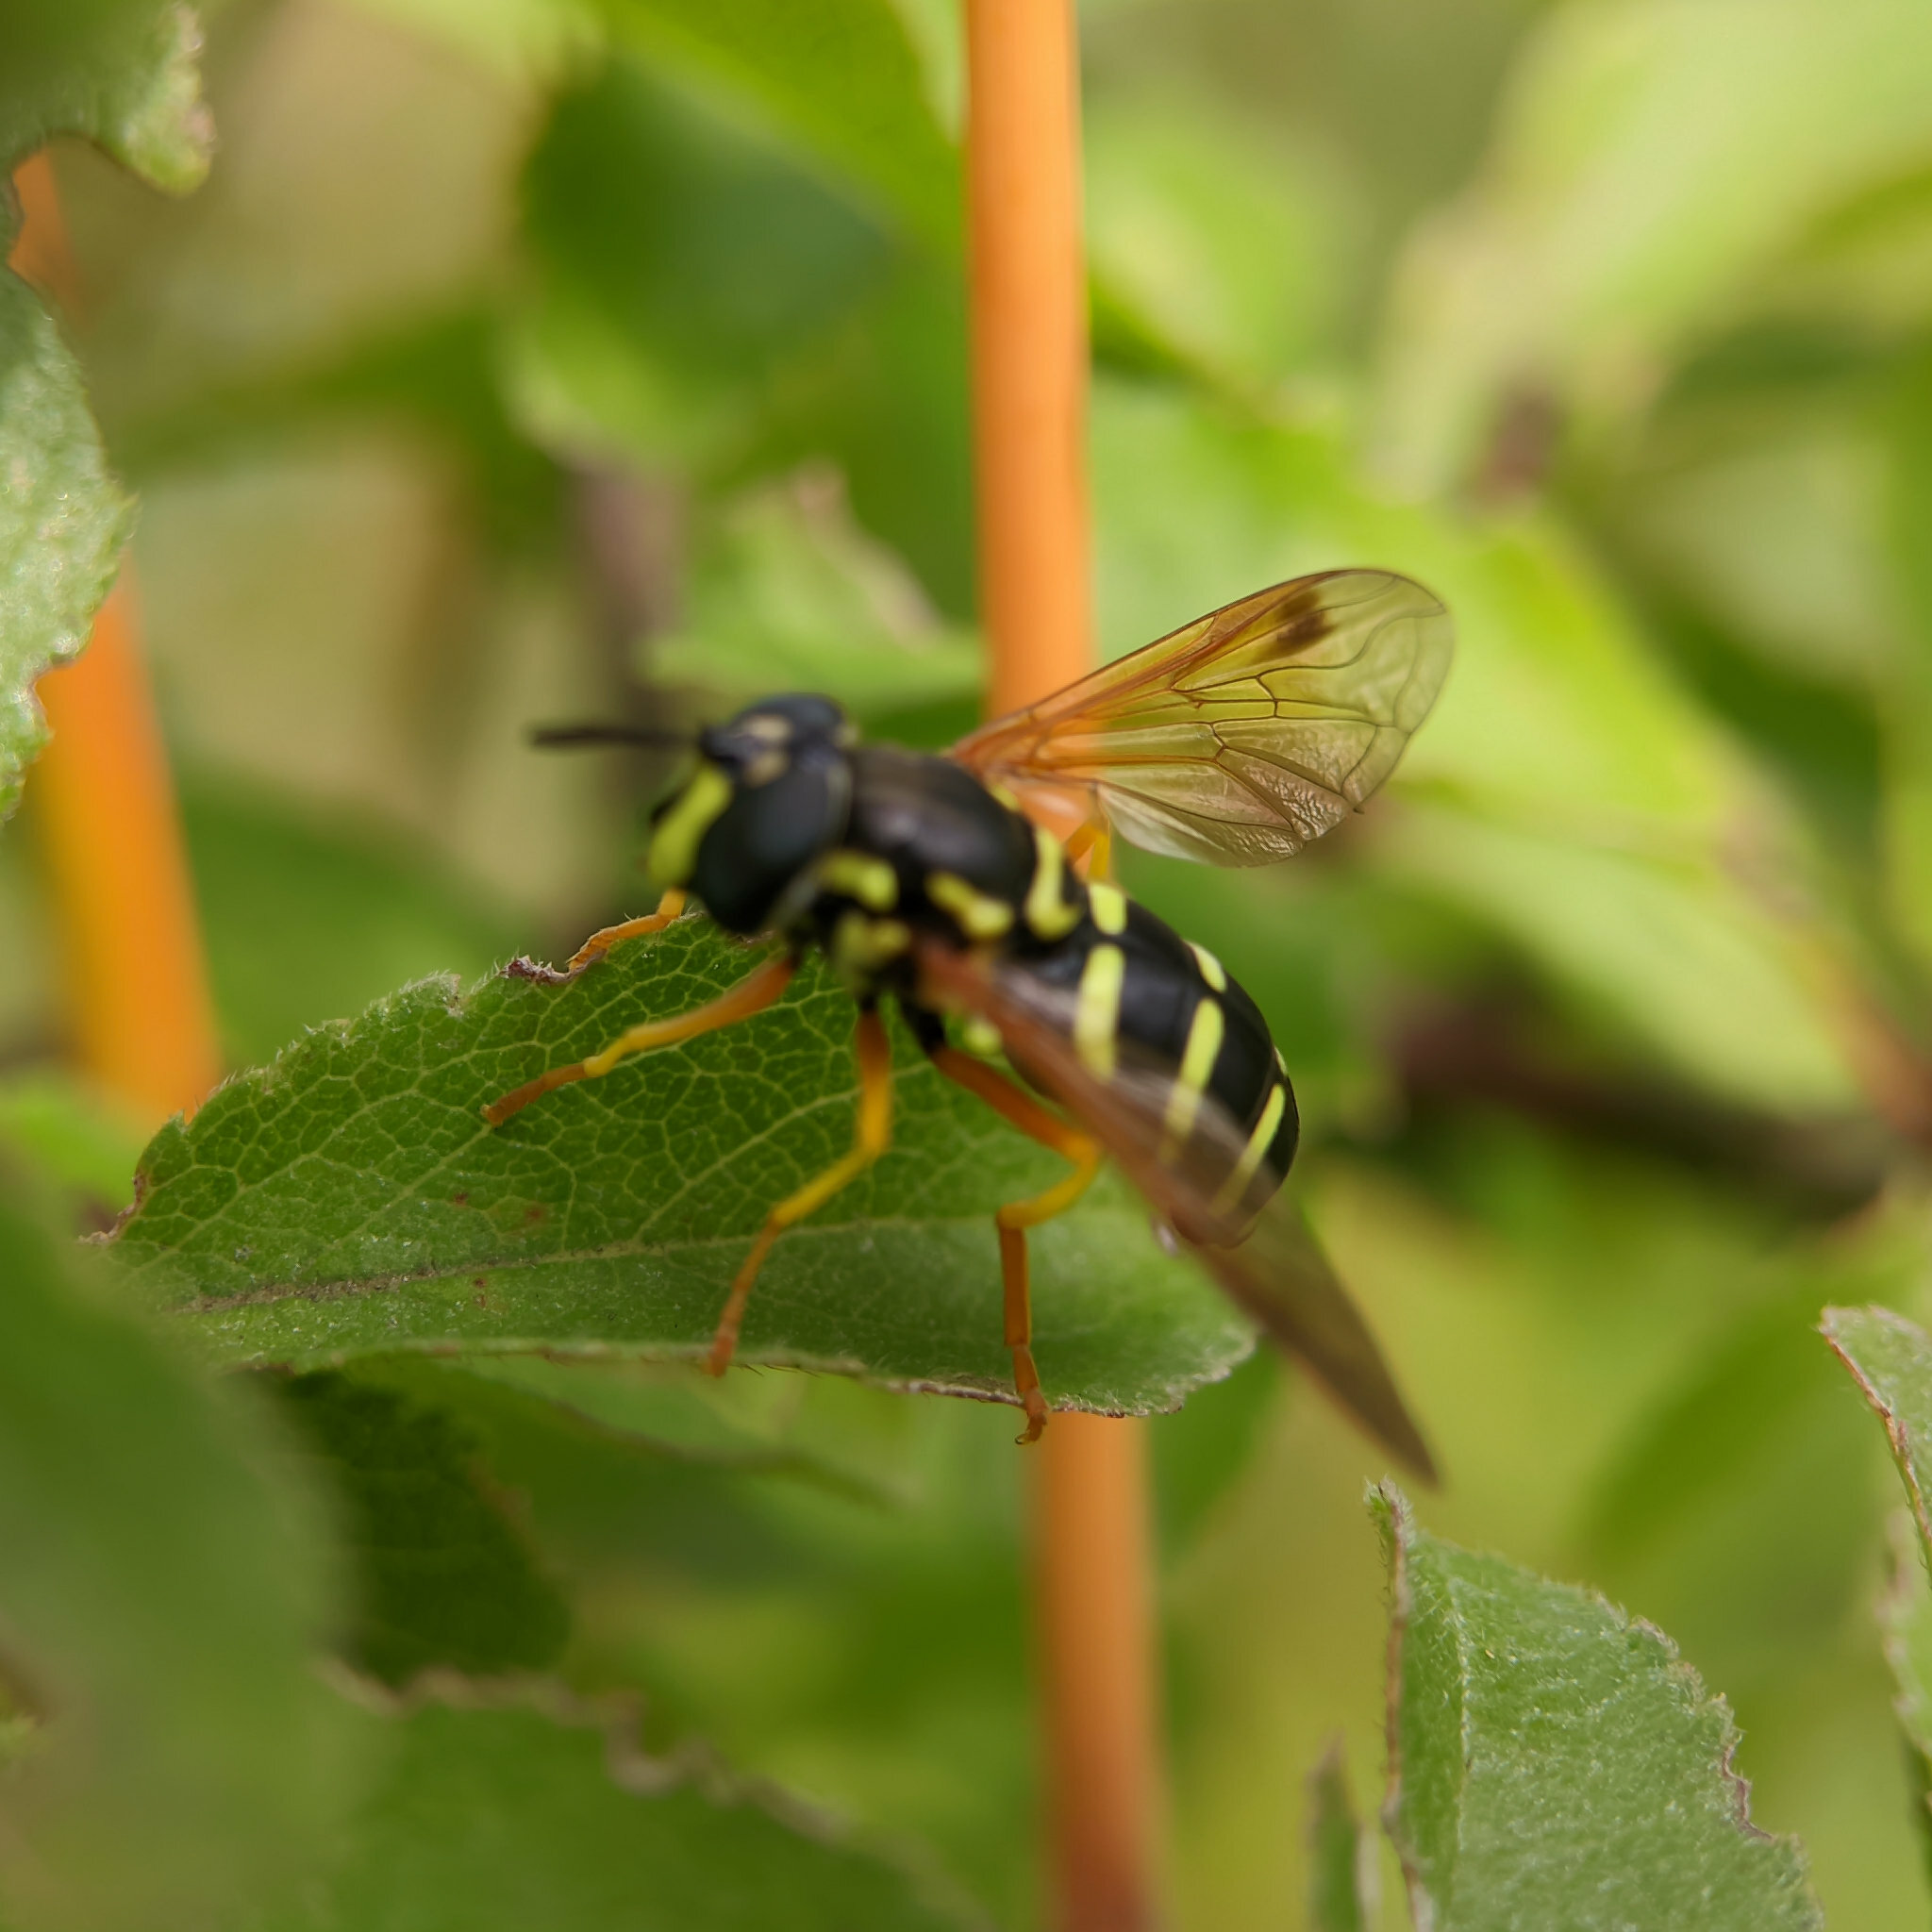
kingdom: Animalia
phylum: Arthropoda
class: Insecta
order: Diptera
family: Syrphidae
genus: Chrysotoxum
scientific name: Chrysotoxum festivum
